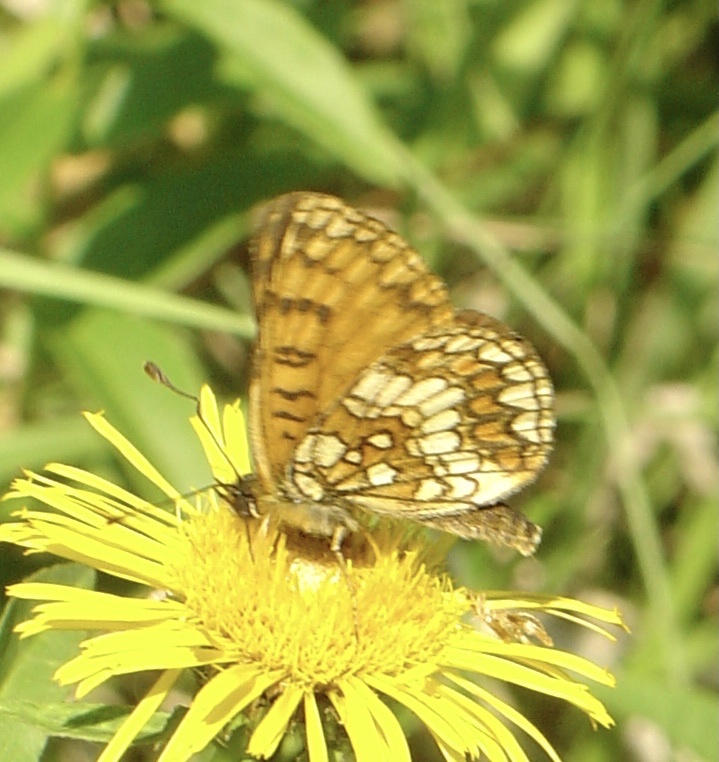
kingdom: Animalia
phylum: Arthropoda
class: Insecta
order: Lepidoptera
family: Nymphalidae
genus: Mellicta
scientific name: Mellicta athalia
